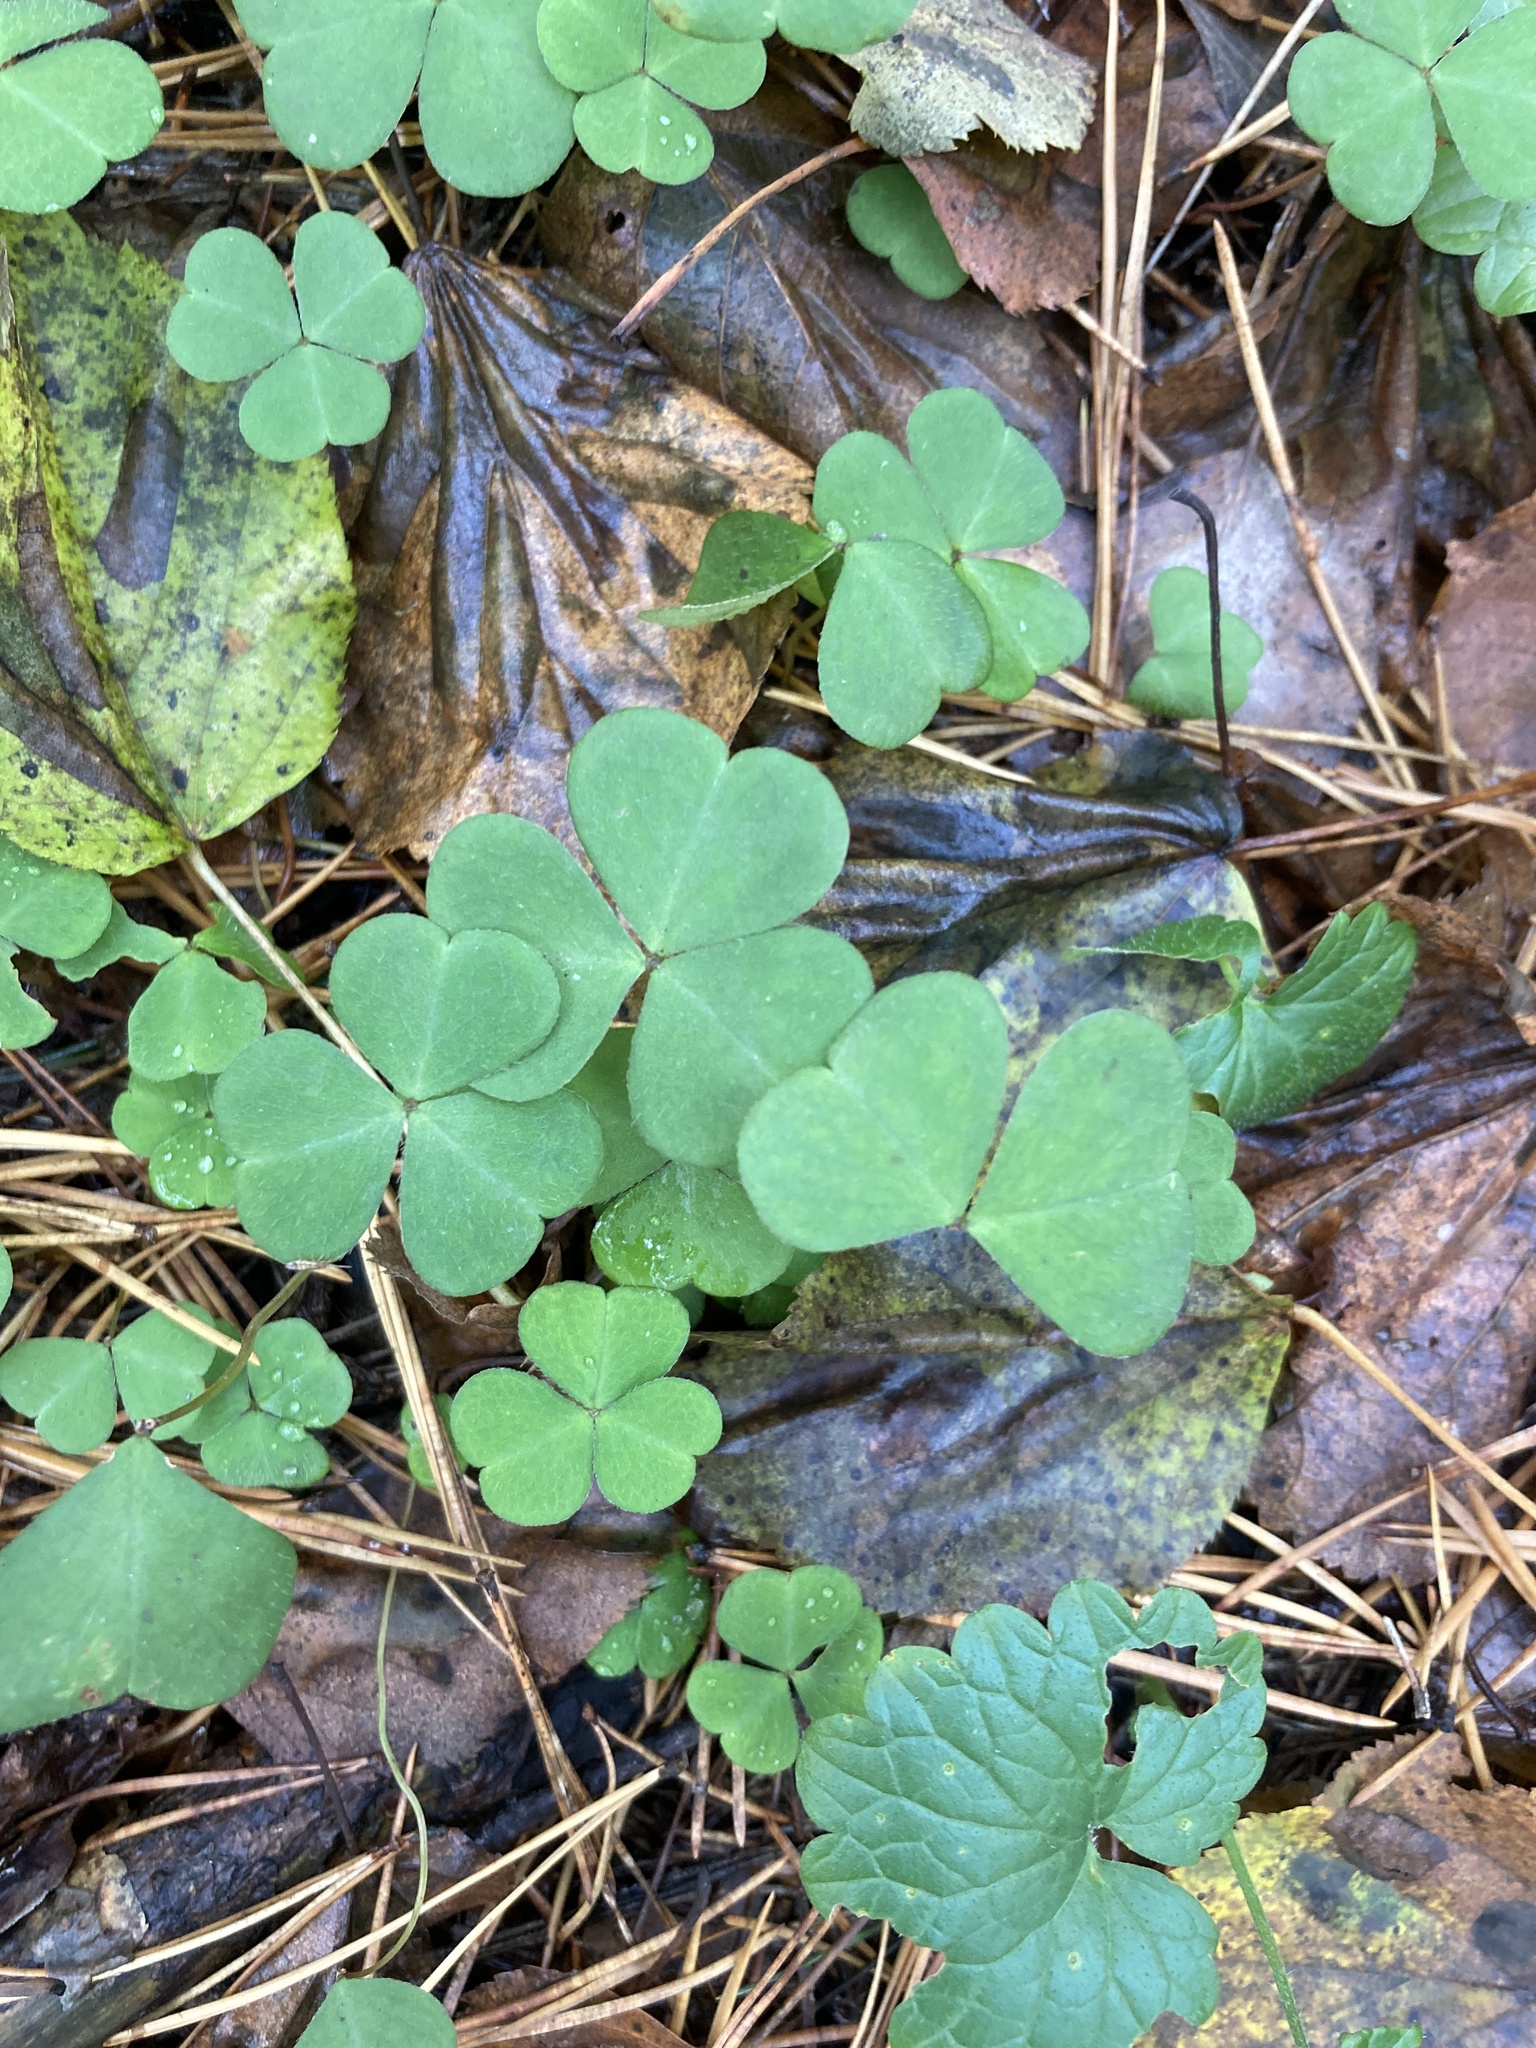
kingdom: Plantae
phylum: Tracheophyta
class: Magnoliopsida
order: Oxalidales
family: Oxalidaceae
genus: Oxalis
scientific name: Oxalis acetosella
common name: Wood-sorrel
